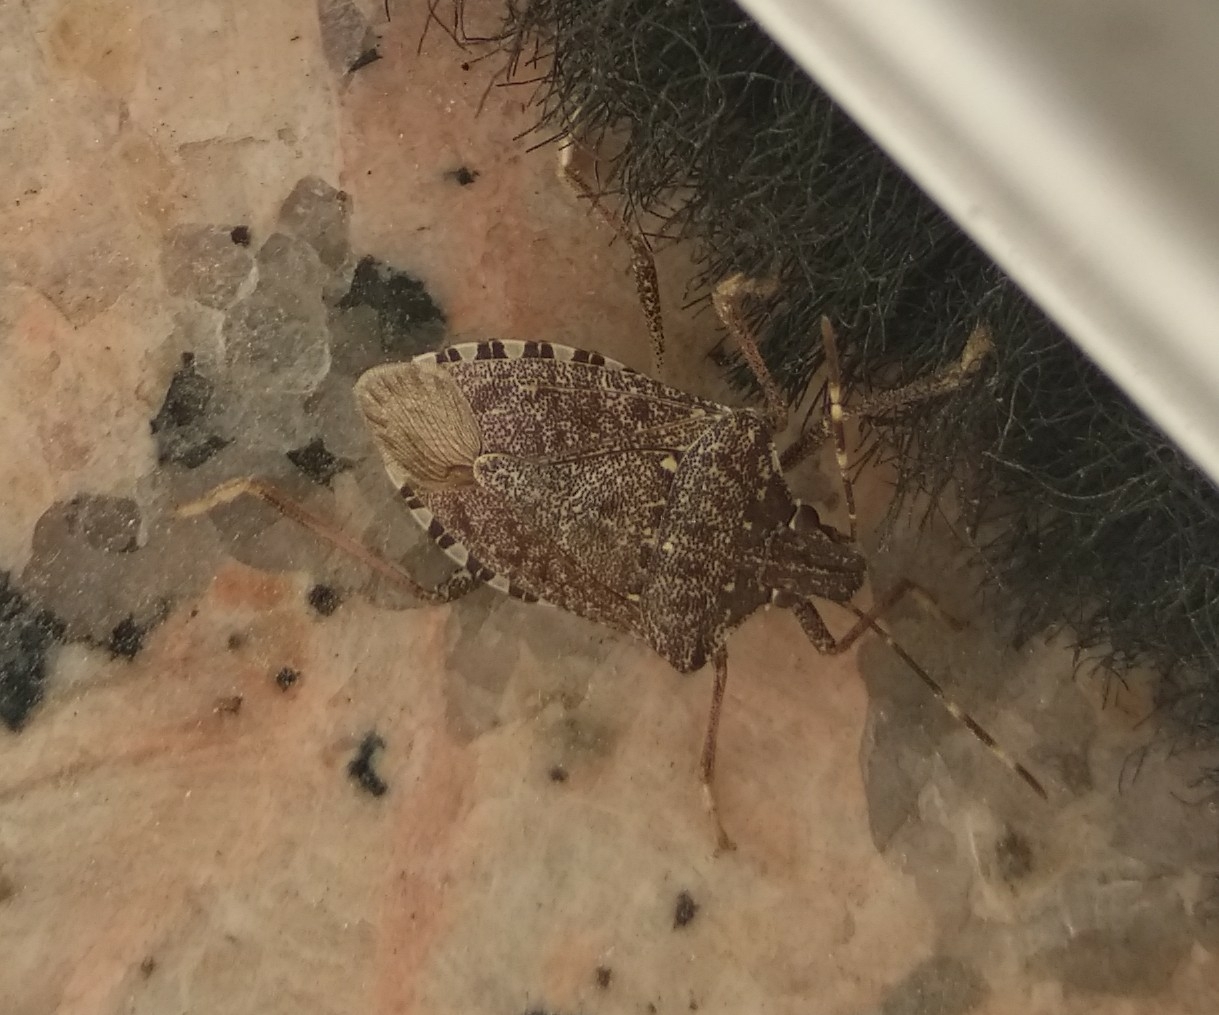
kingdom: Animalia
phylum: Arthropoda
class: Insecta
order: Hemiptera
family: Pentatomidae
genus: Halyomorpha
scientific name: Halyomorpha halys
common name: Brown marmorated stink bug
